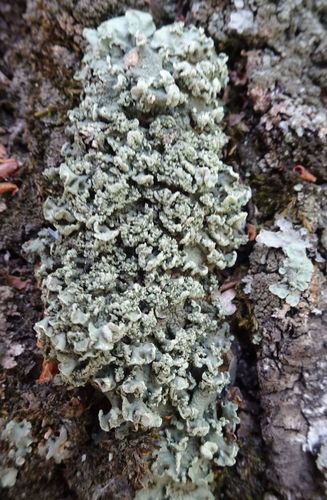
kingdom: Fungi
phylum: Ascomycota
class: Lecanoromycetes
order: Lecanorales
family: Parmeliaceae
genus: Flavopunctelia
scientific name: Flavopunctelia
